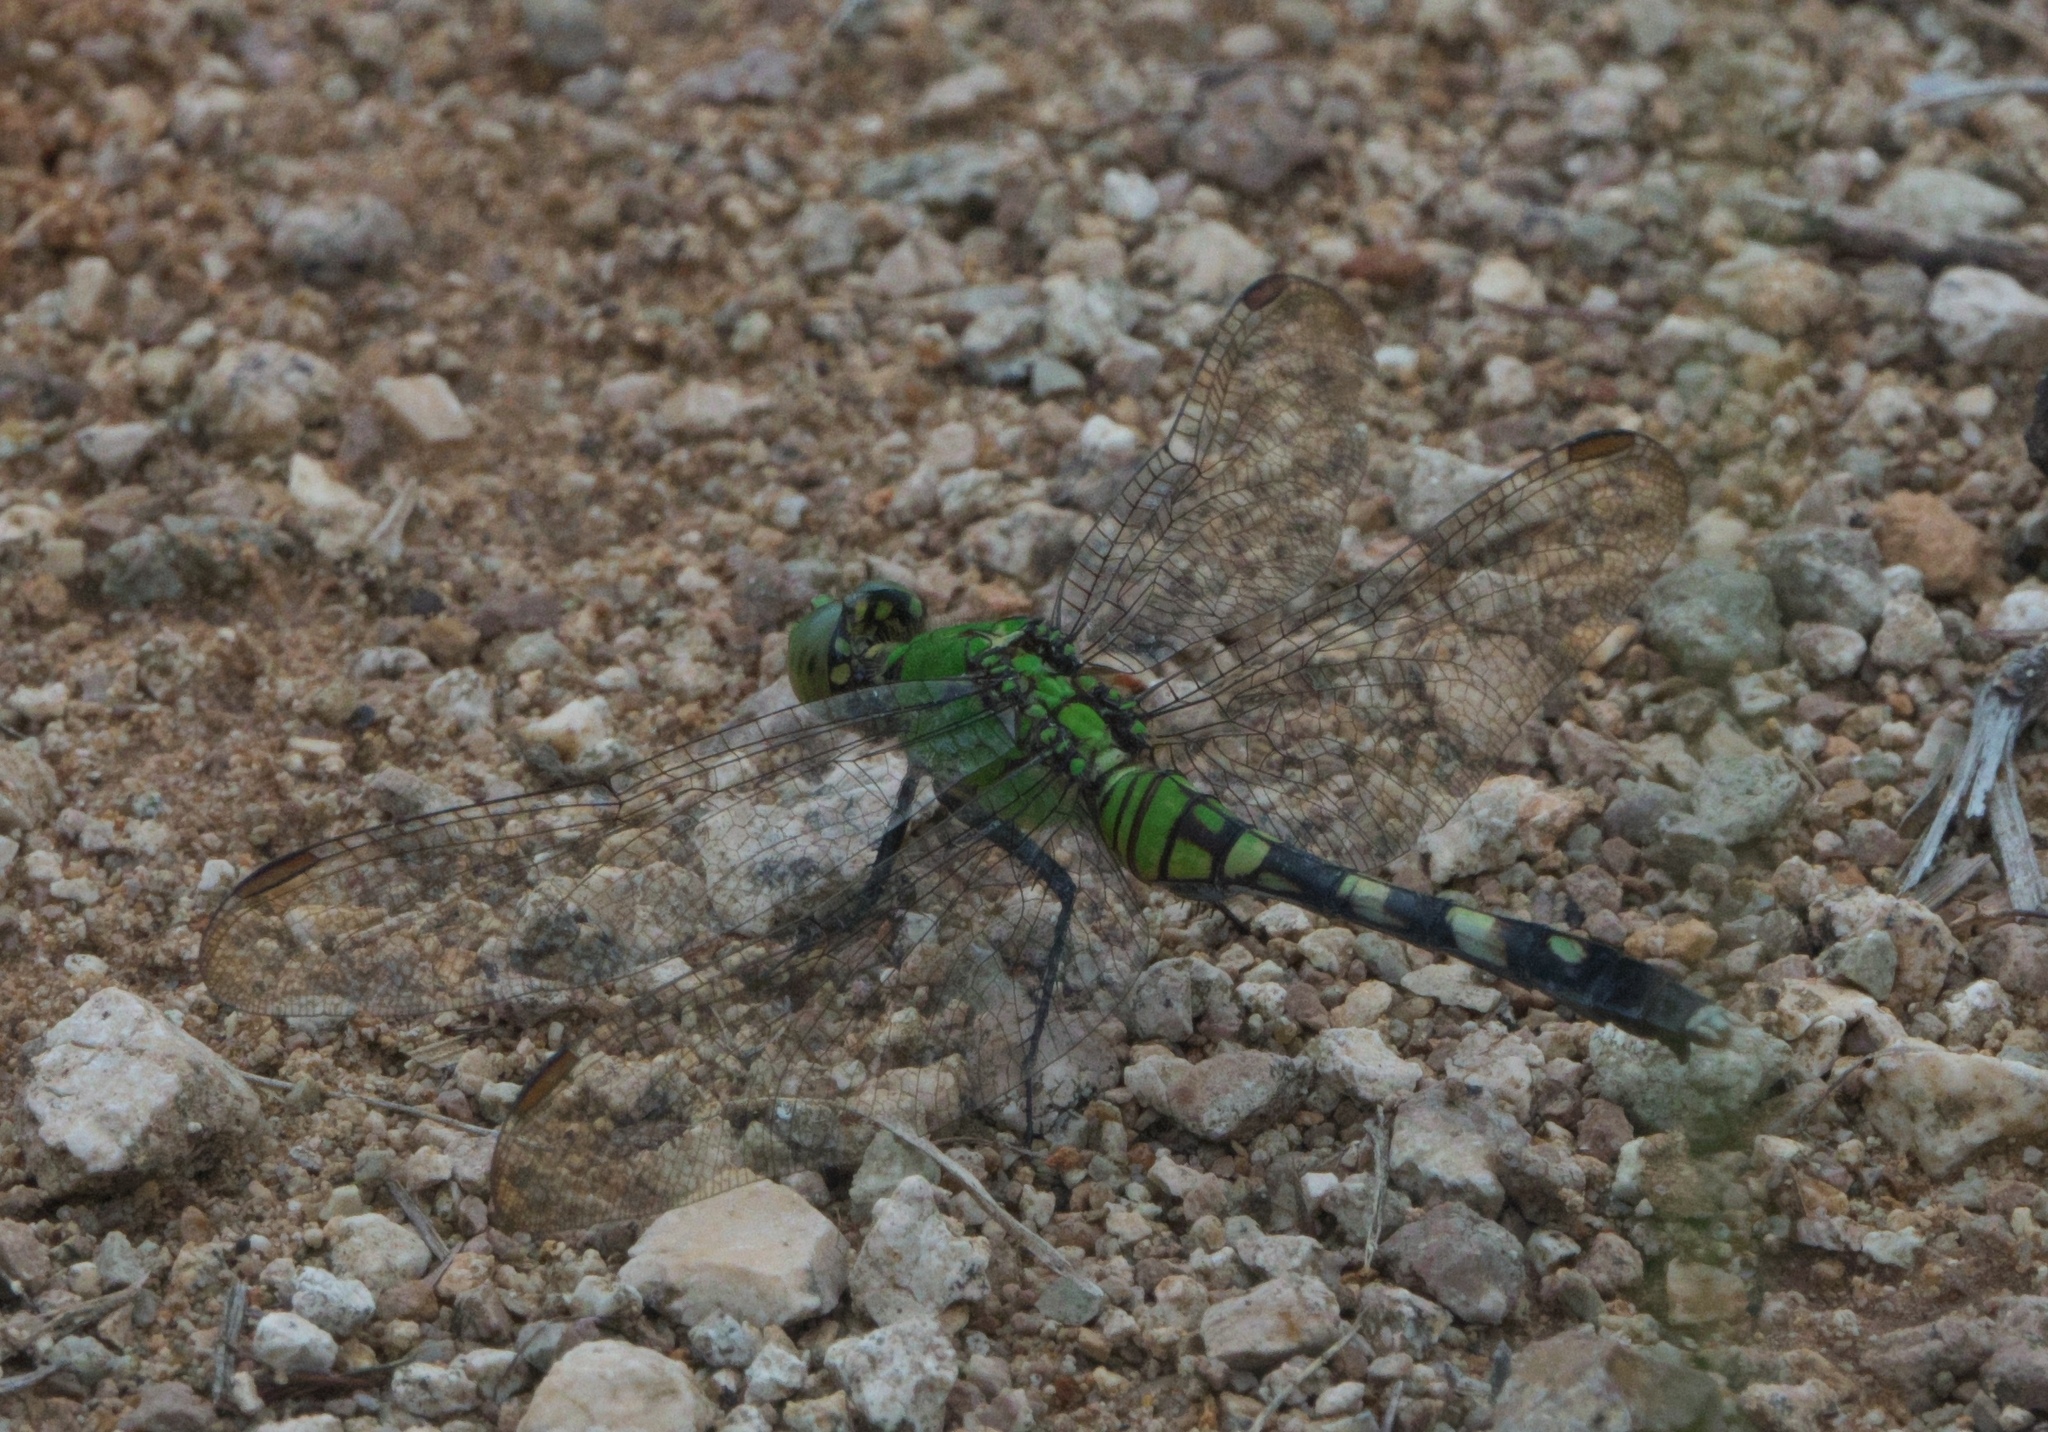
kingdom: Animalia
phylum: Arthropoda
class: Insecta
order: Odonata
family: Libellulidae
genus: Erythemis
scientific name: Erythemis simplicicollis
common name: Eastern pondhawk
